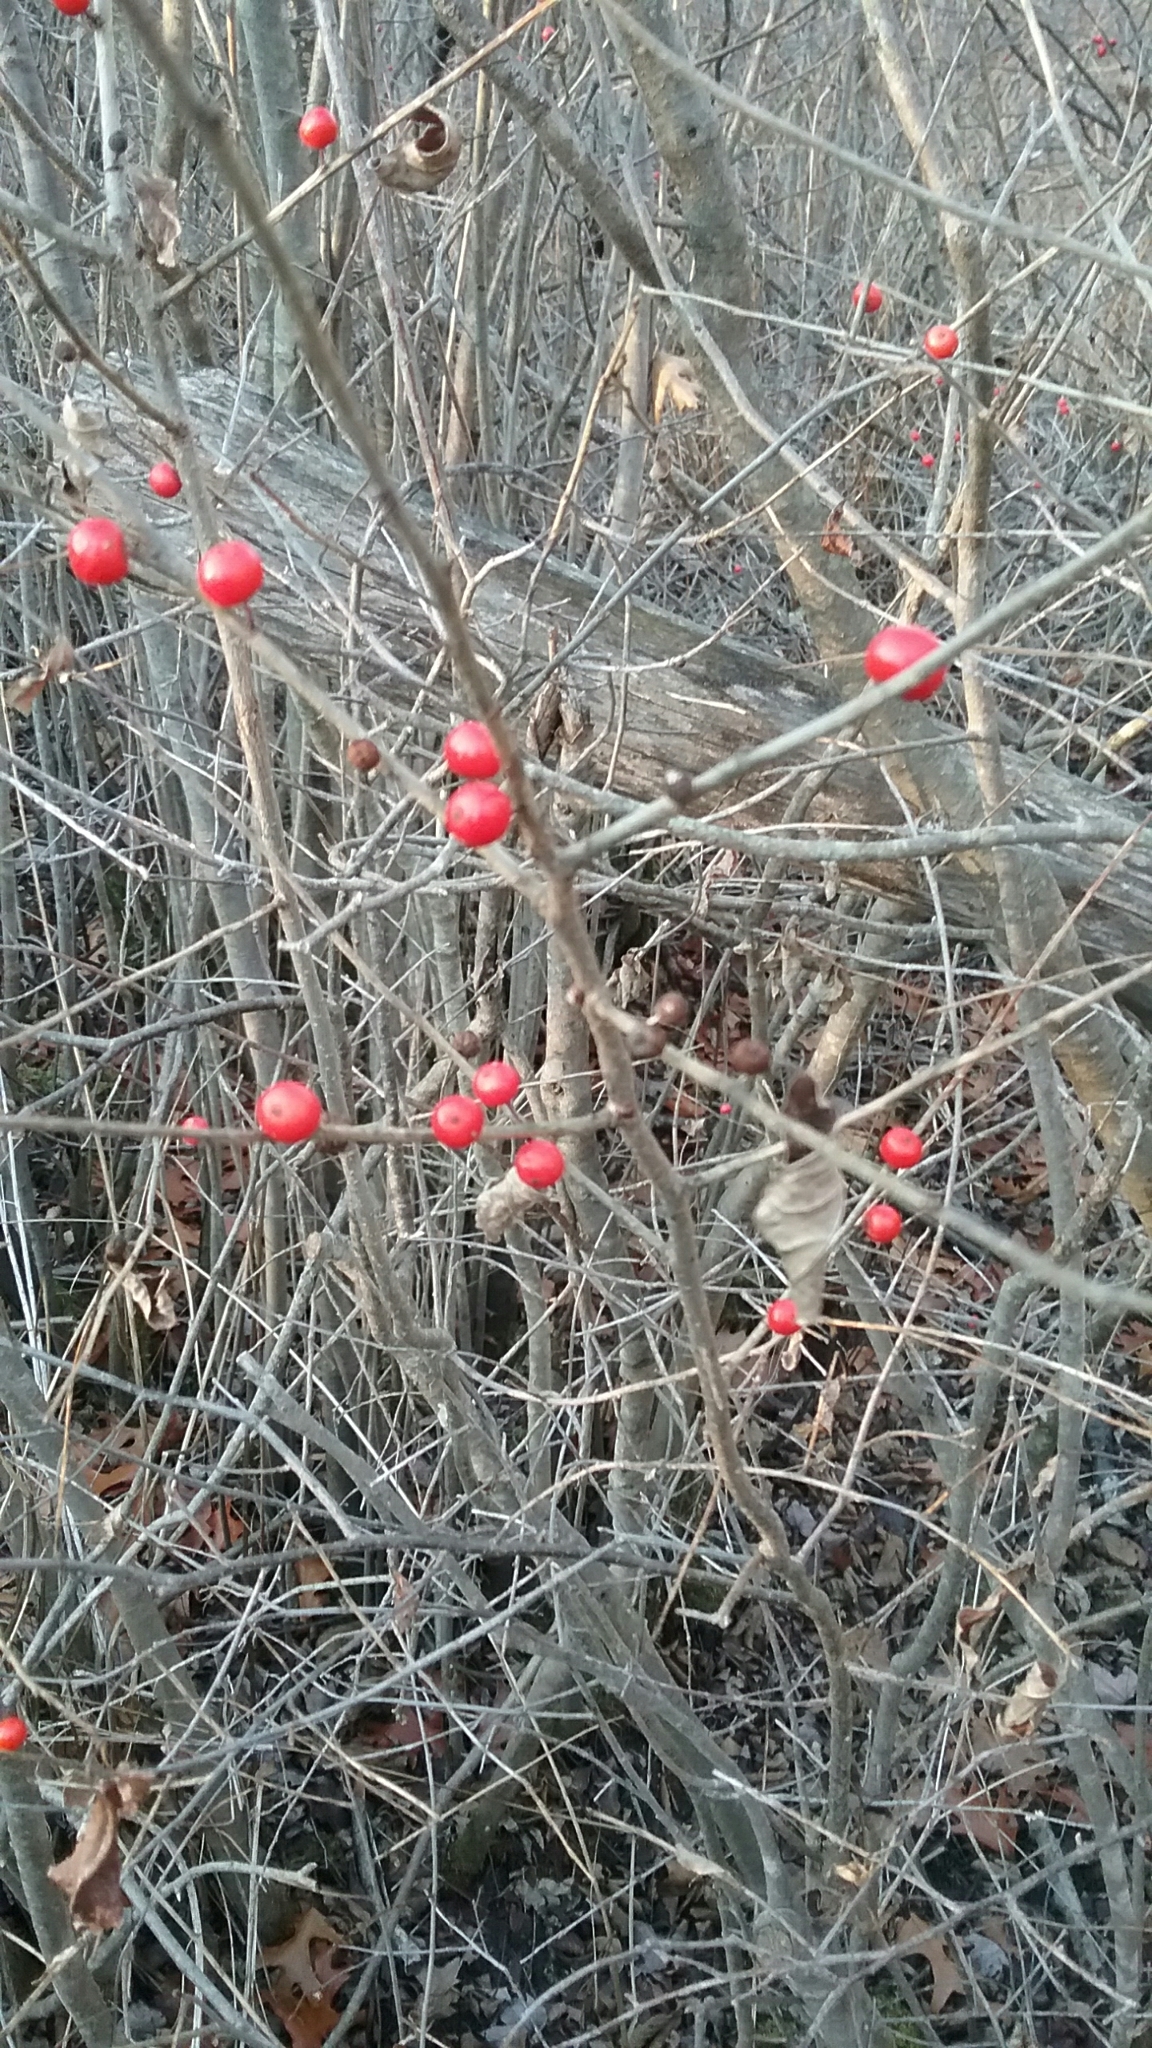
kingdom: Plantae
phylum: Tracheophyta
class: Magnoliopsida
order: Aquifoliales
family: Aquifoliaceae
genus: Ilex
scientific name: Ilex verticillata
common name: Virginia winterberry
